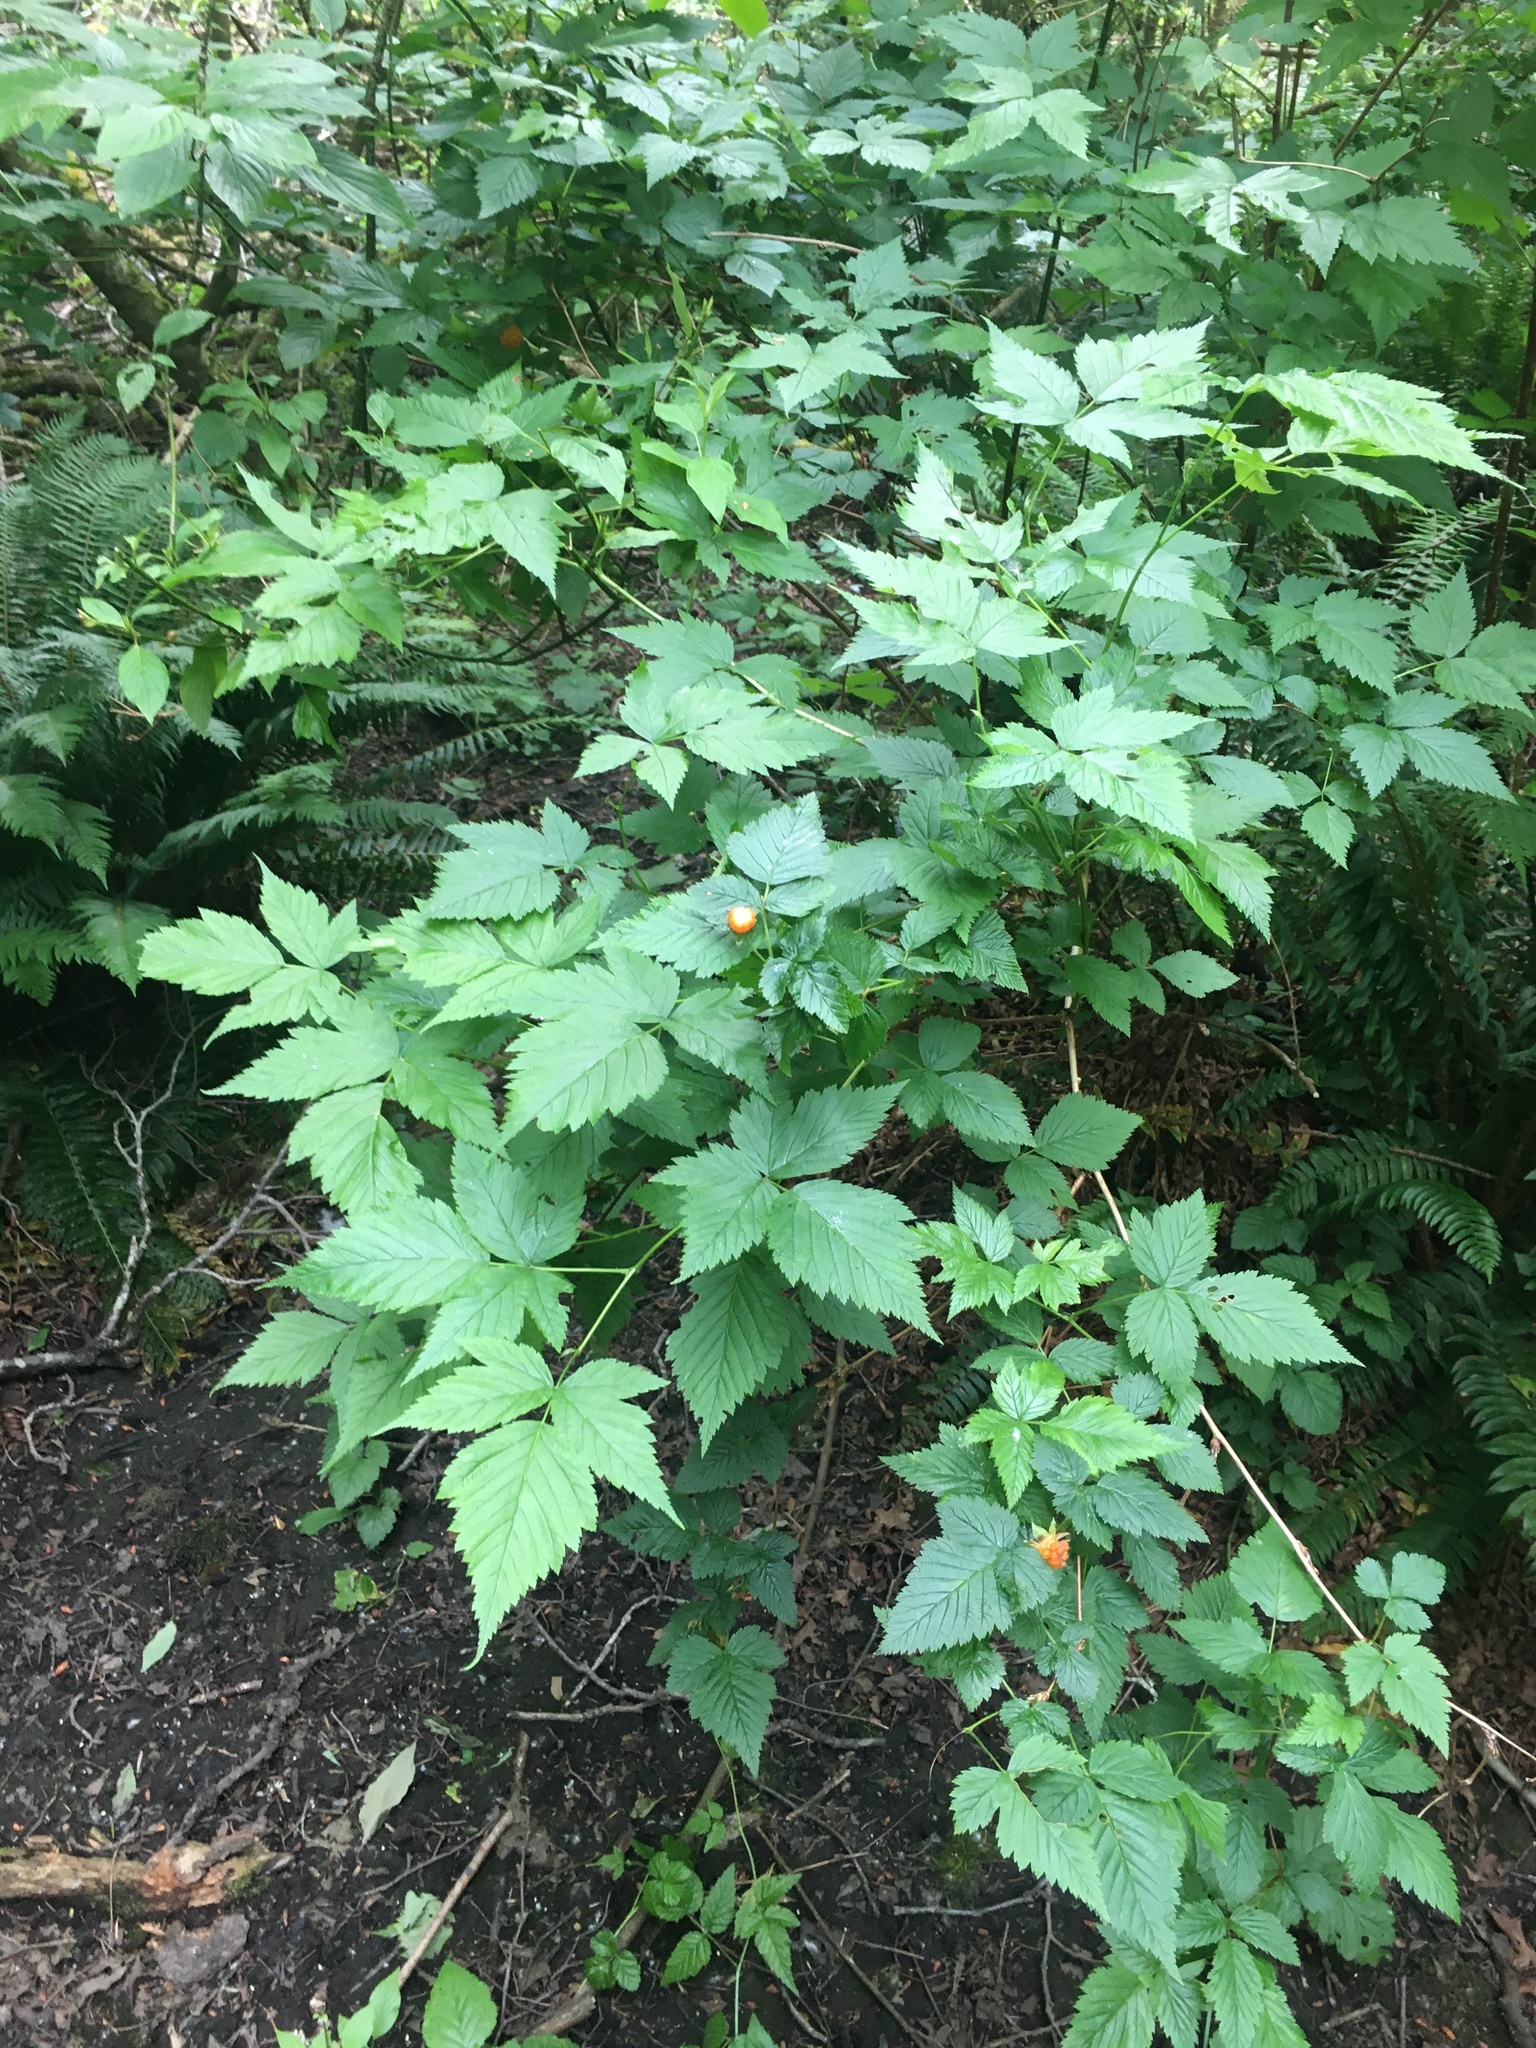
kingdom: Plantae
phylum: Tracheophyta
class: Magnoliopsida
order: Rosales
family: Rosaceae
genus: Rubus
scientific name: Rubus spectabilis
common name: Salmonberry
